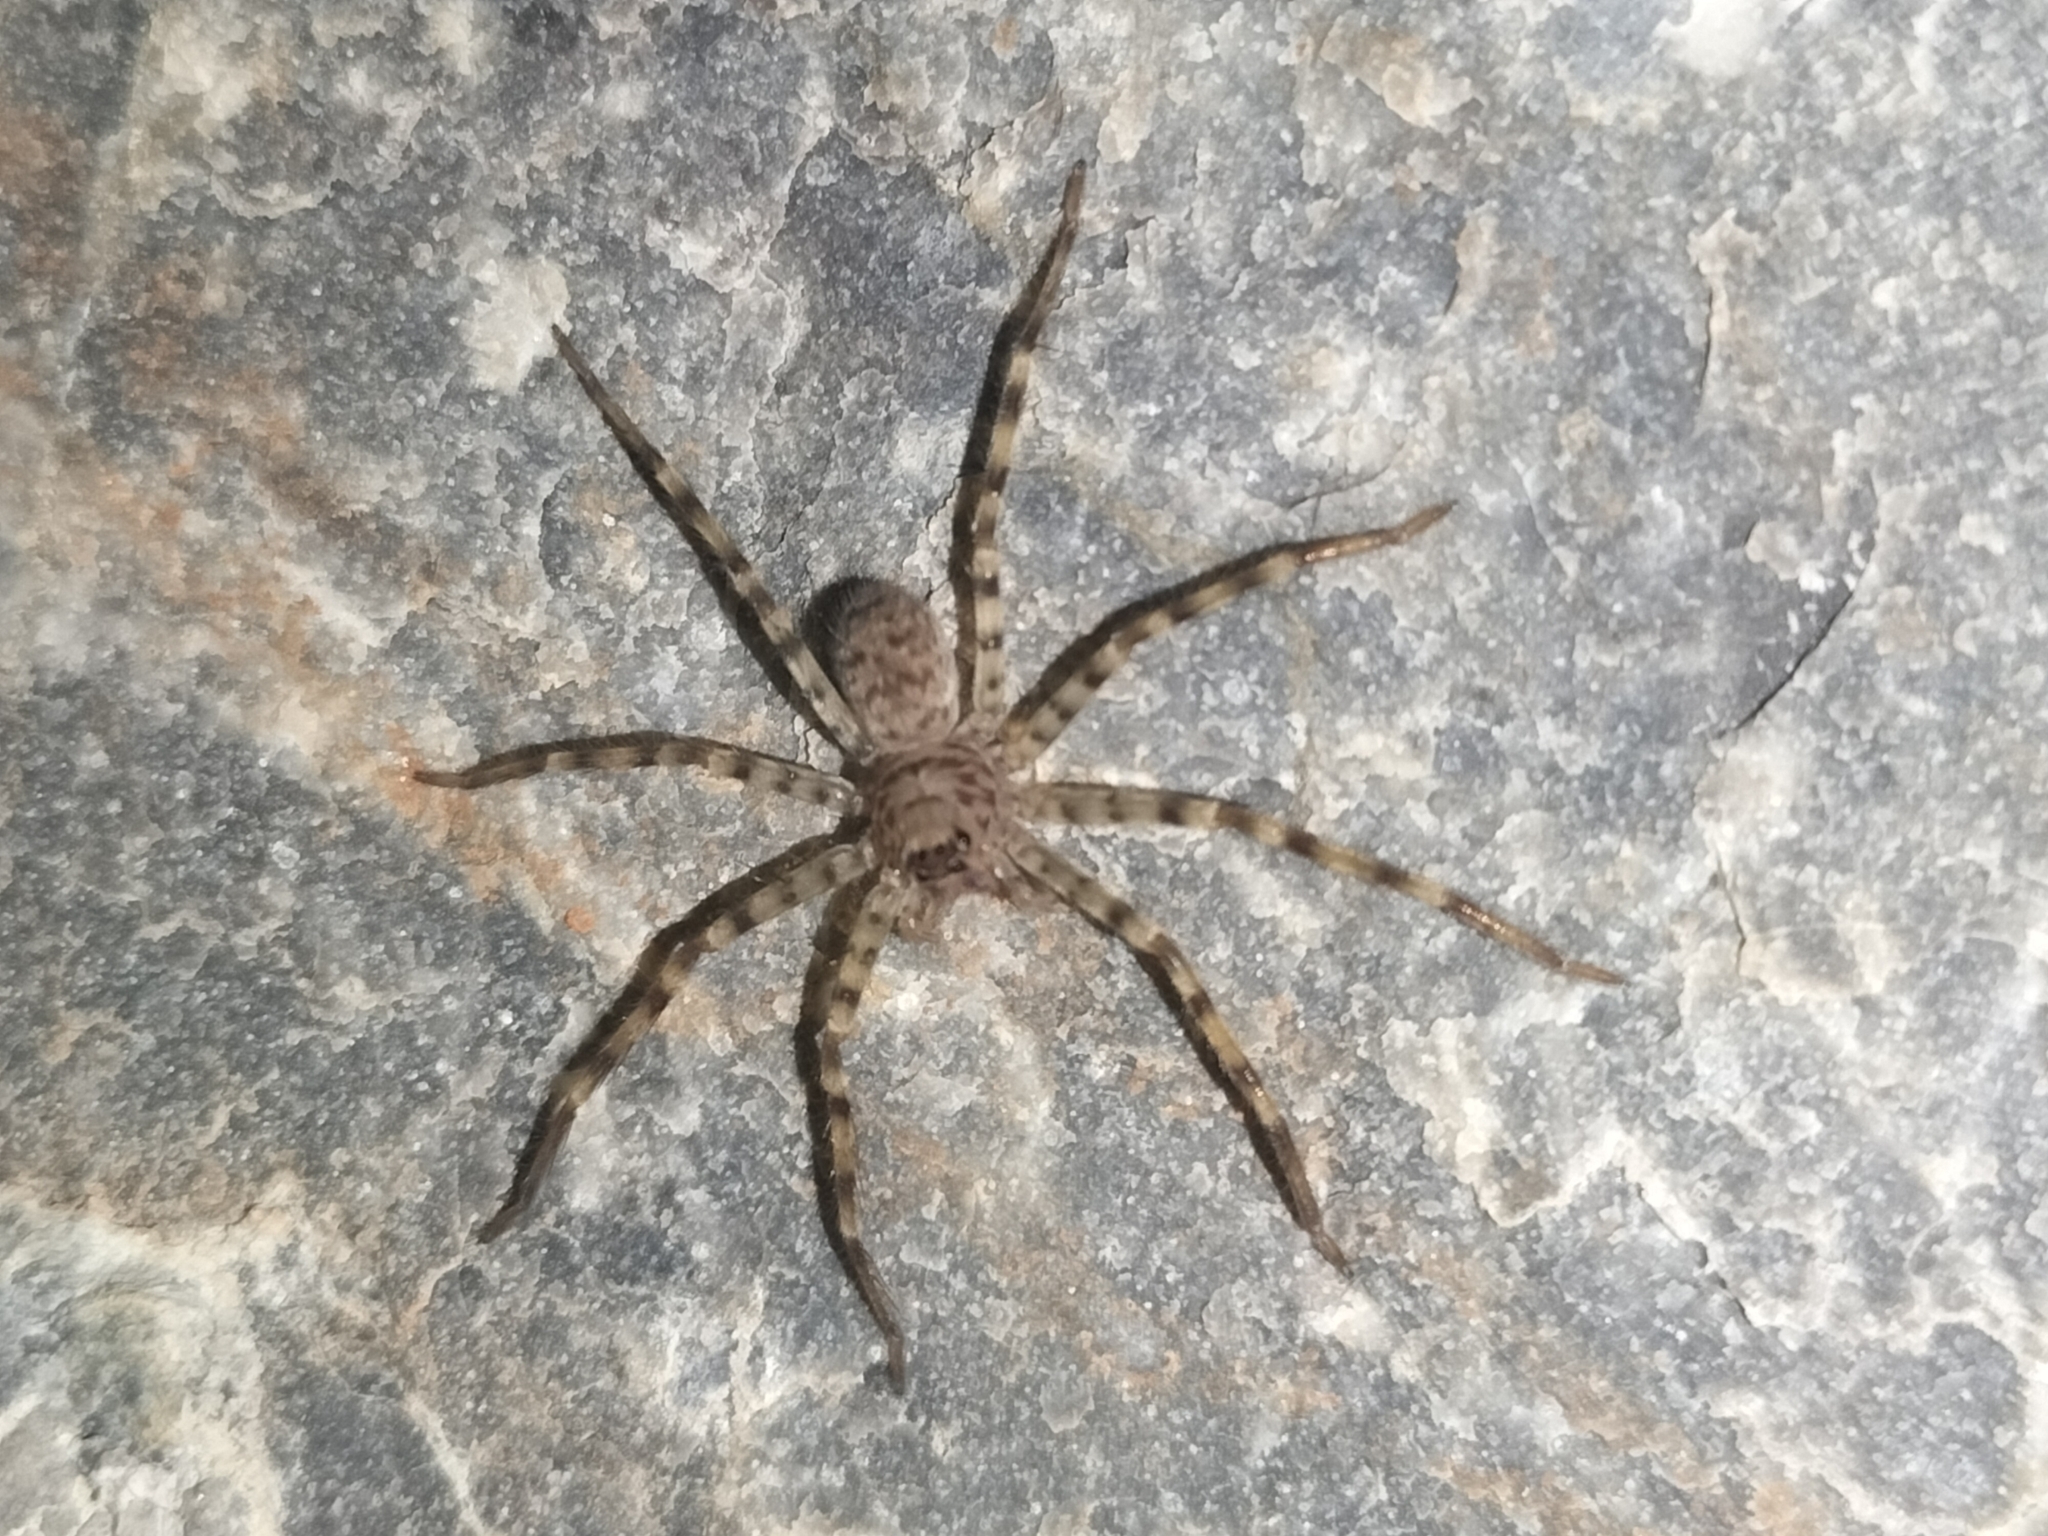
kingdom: Animalia
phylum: Arthropoda
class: Arachnida
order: Araneae
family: Sparassidae
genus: Yiinthi
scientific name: Yiinthi chillagoe
